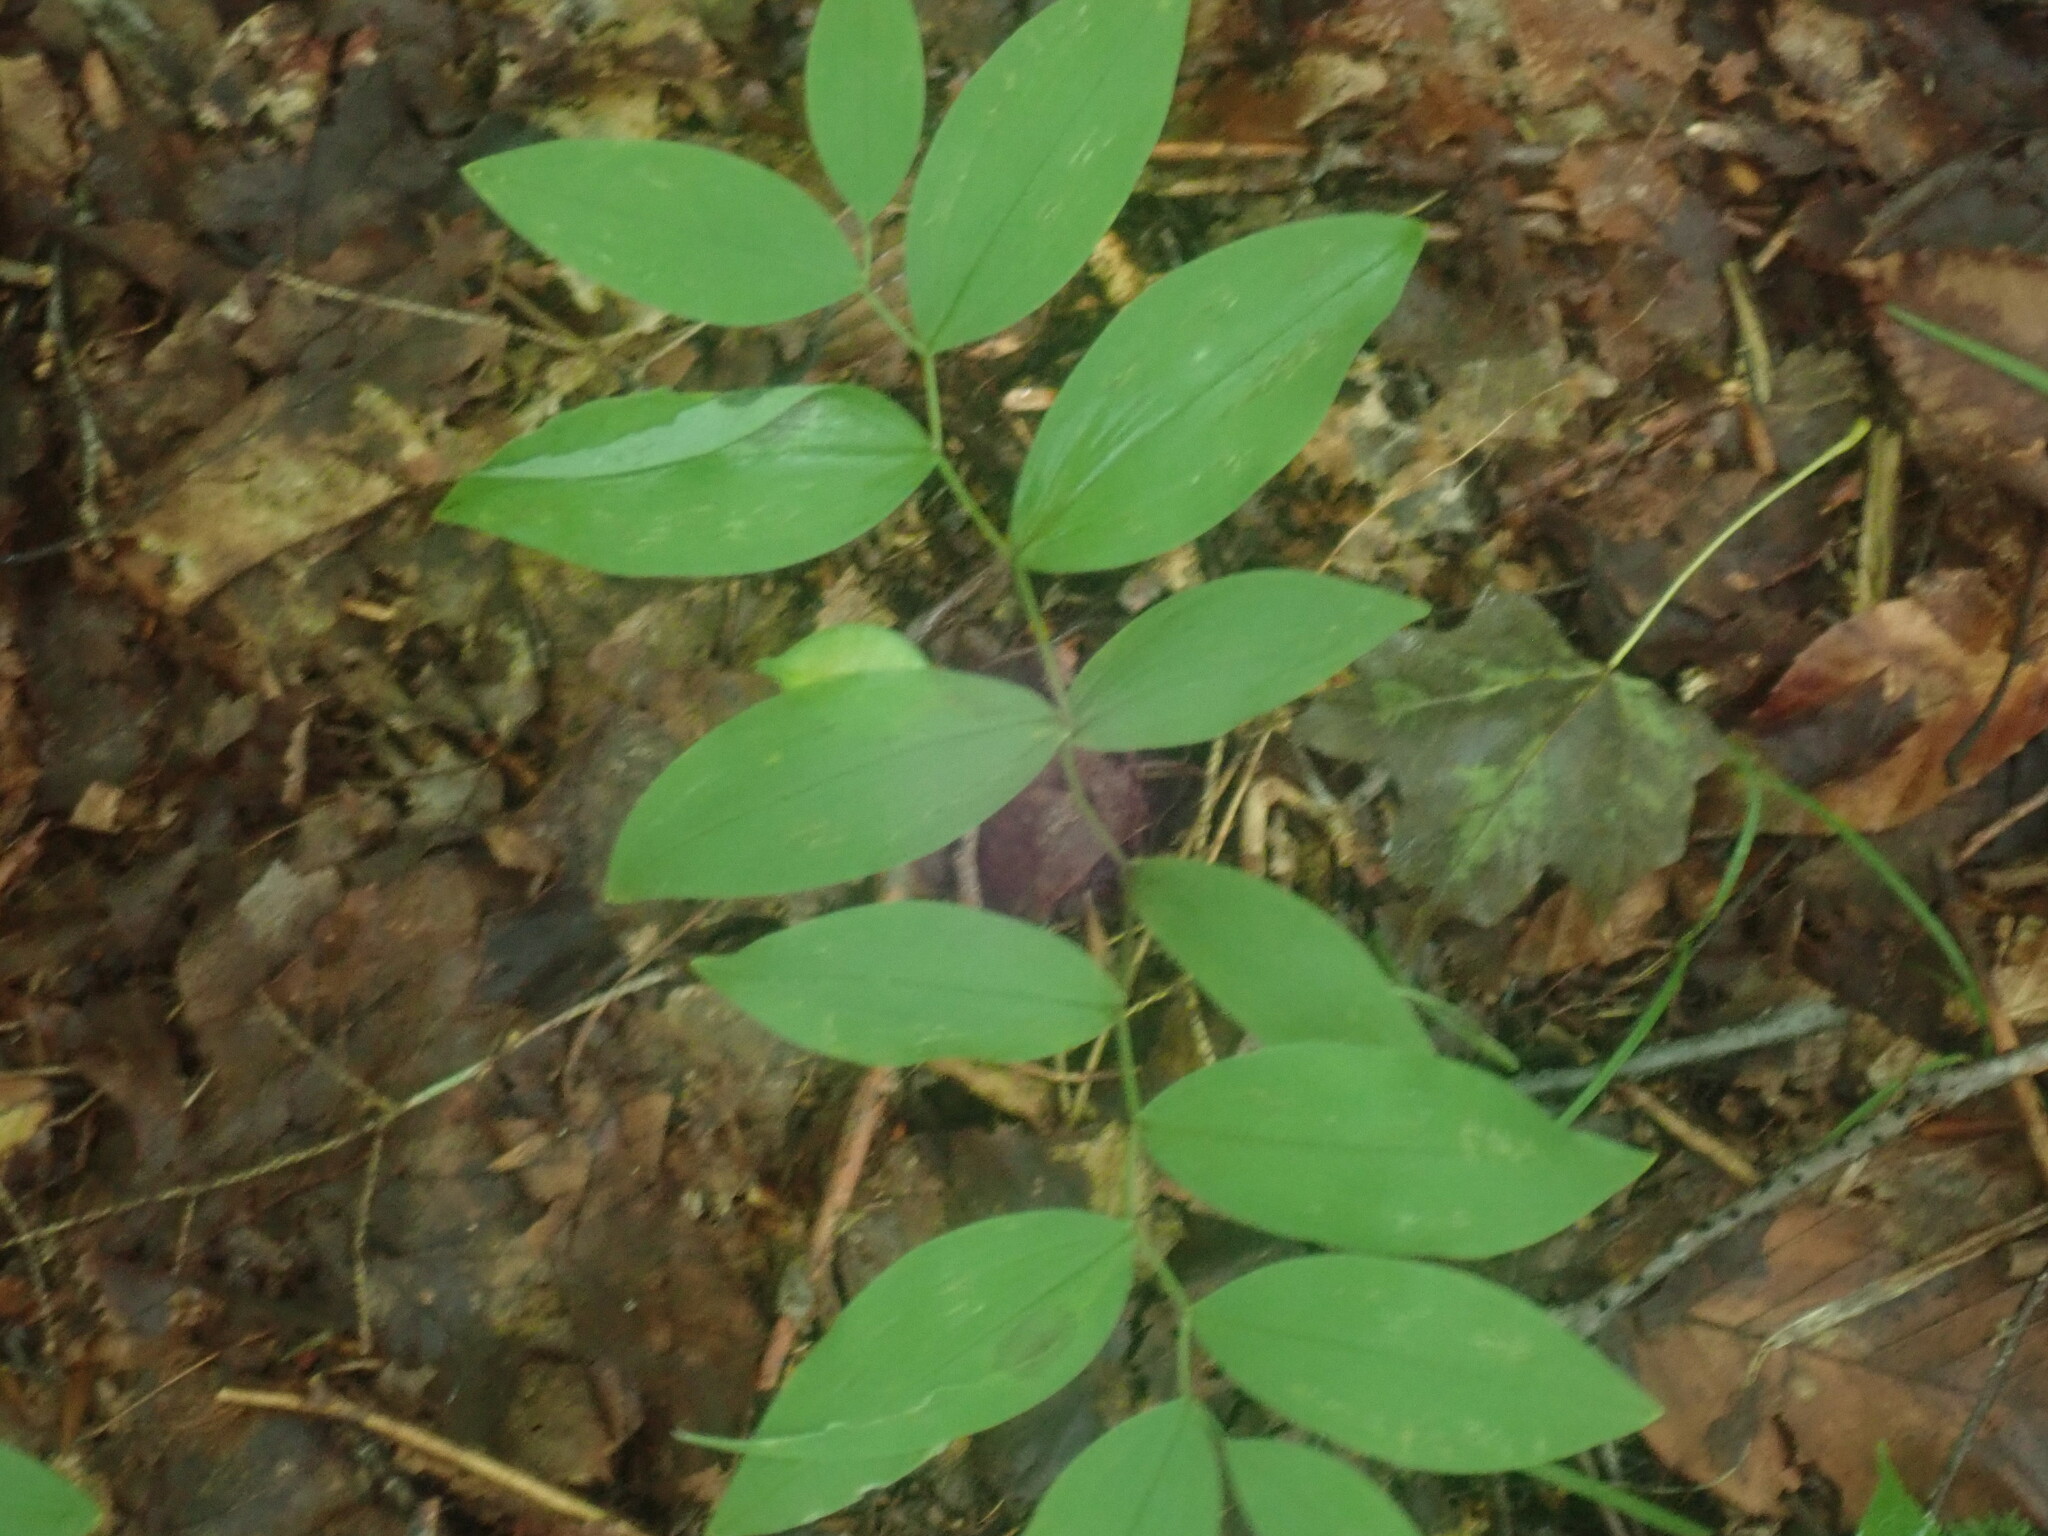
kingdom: Plantae
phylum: Tracheophyta
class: Liliopsida
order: Liliales
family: Colchicaceae
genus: Uvularia
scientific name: Uvularia sessilifolia
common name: Straw-lily
